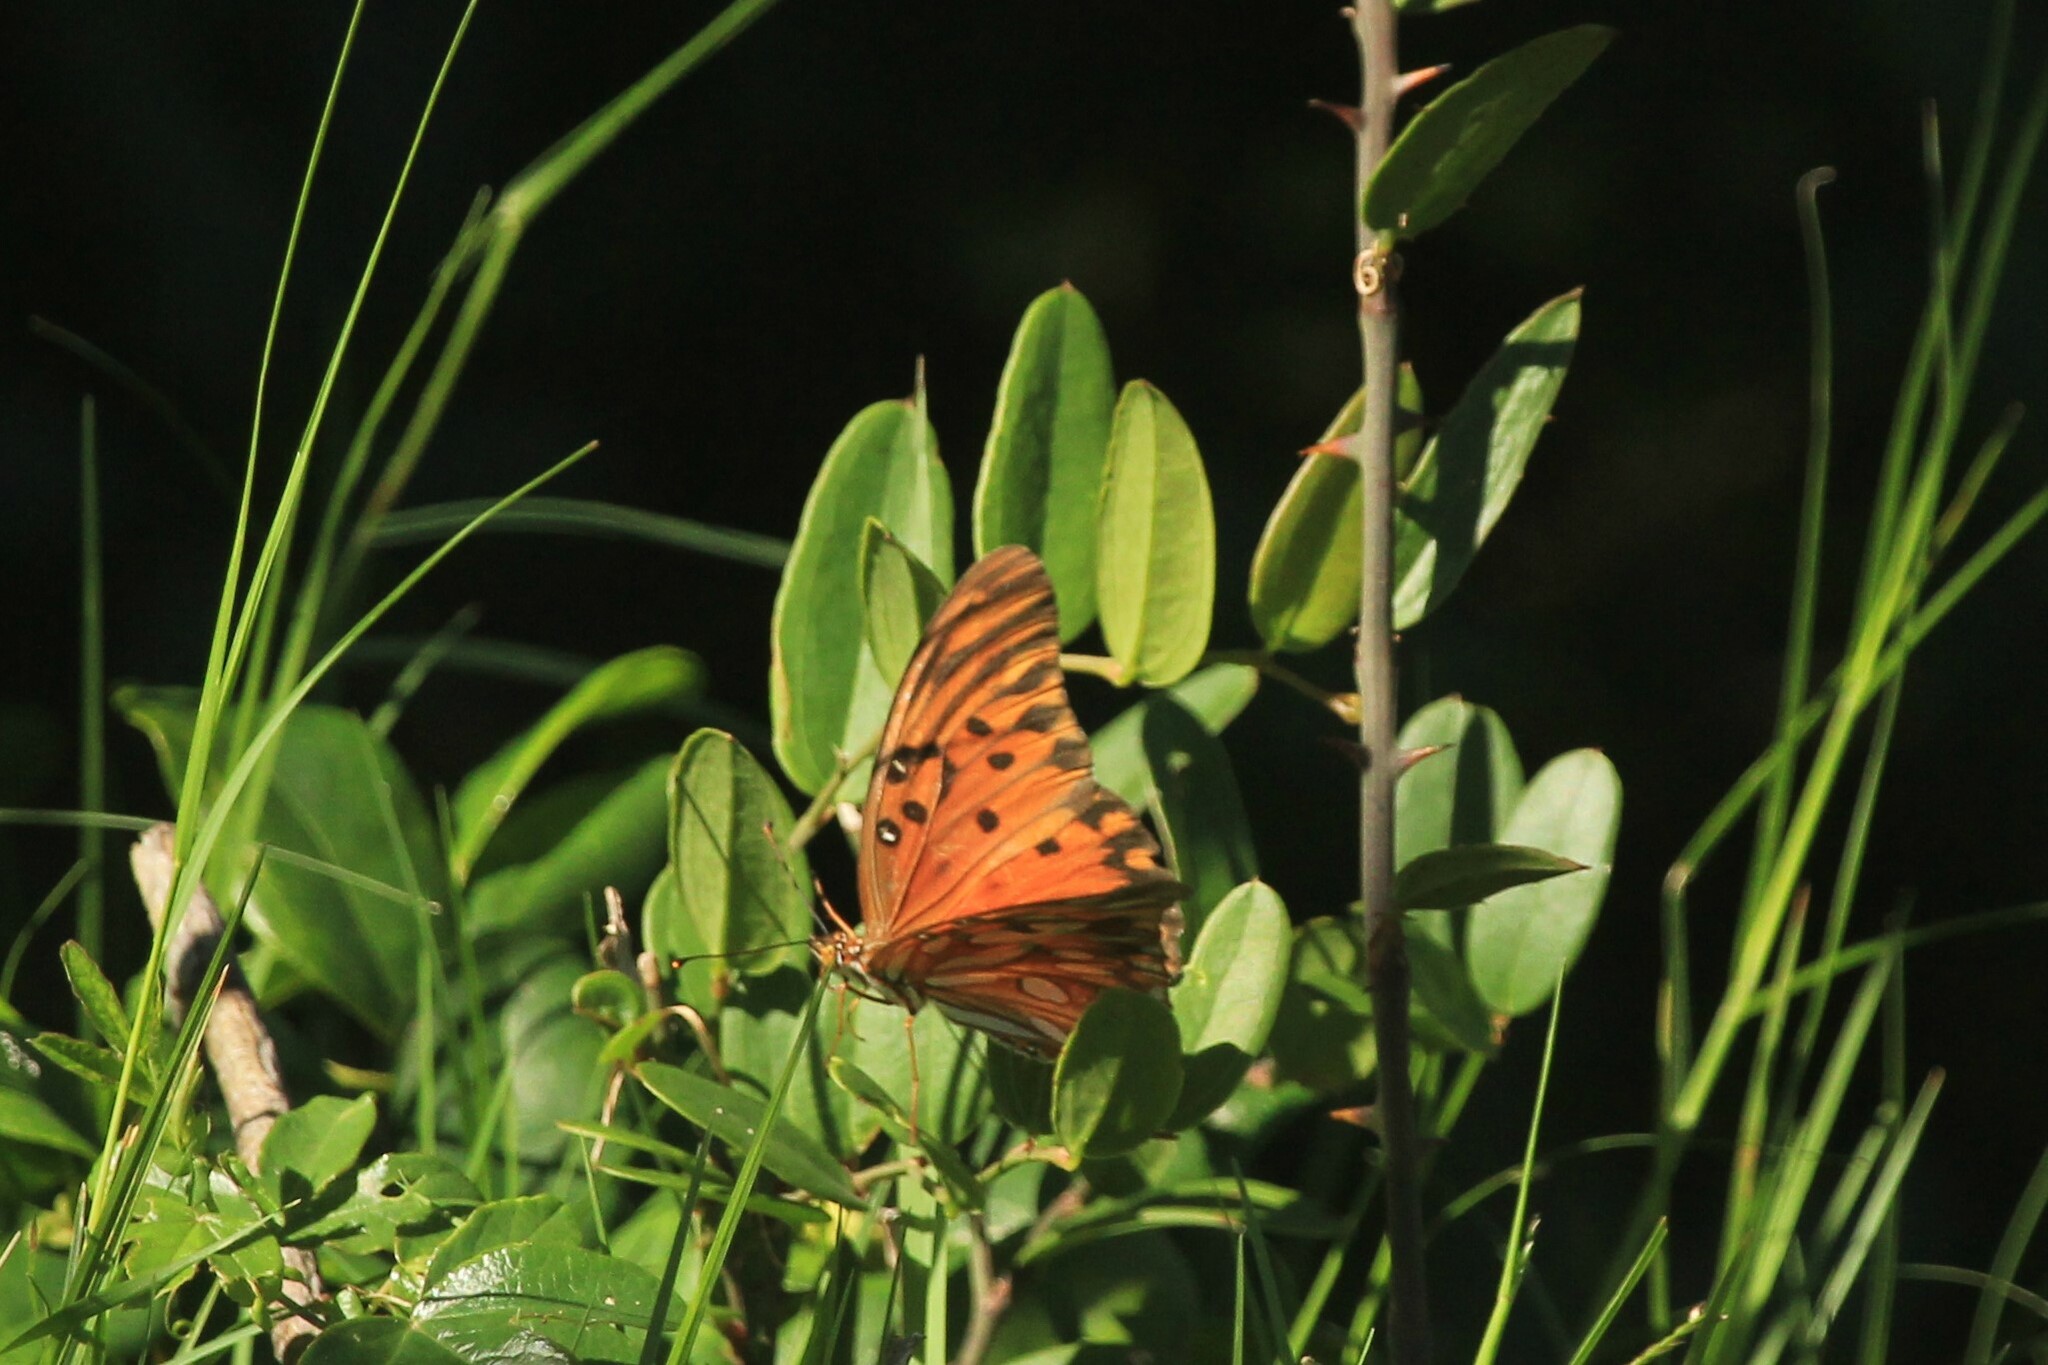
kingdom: Animalia
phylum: Arthropoda
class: Insecta
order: Lepidoptera
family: Nymphalidae
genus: Dione
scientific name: Dione vanillae
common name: Gulf fritillary
